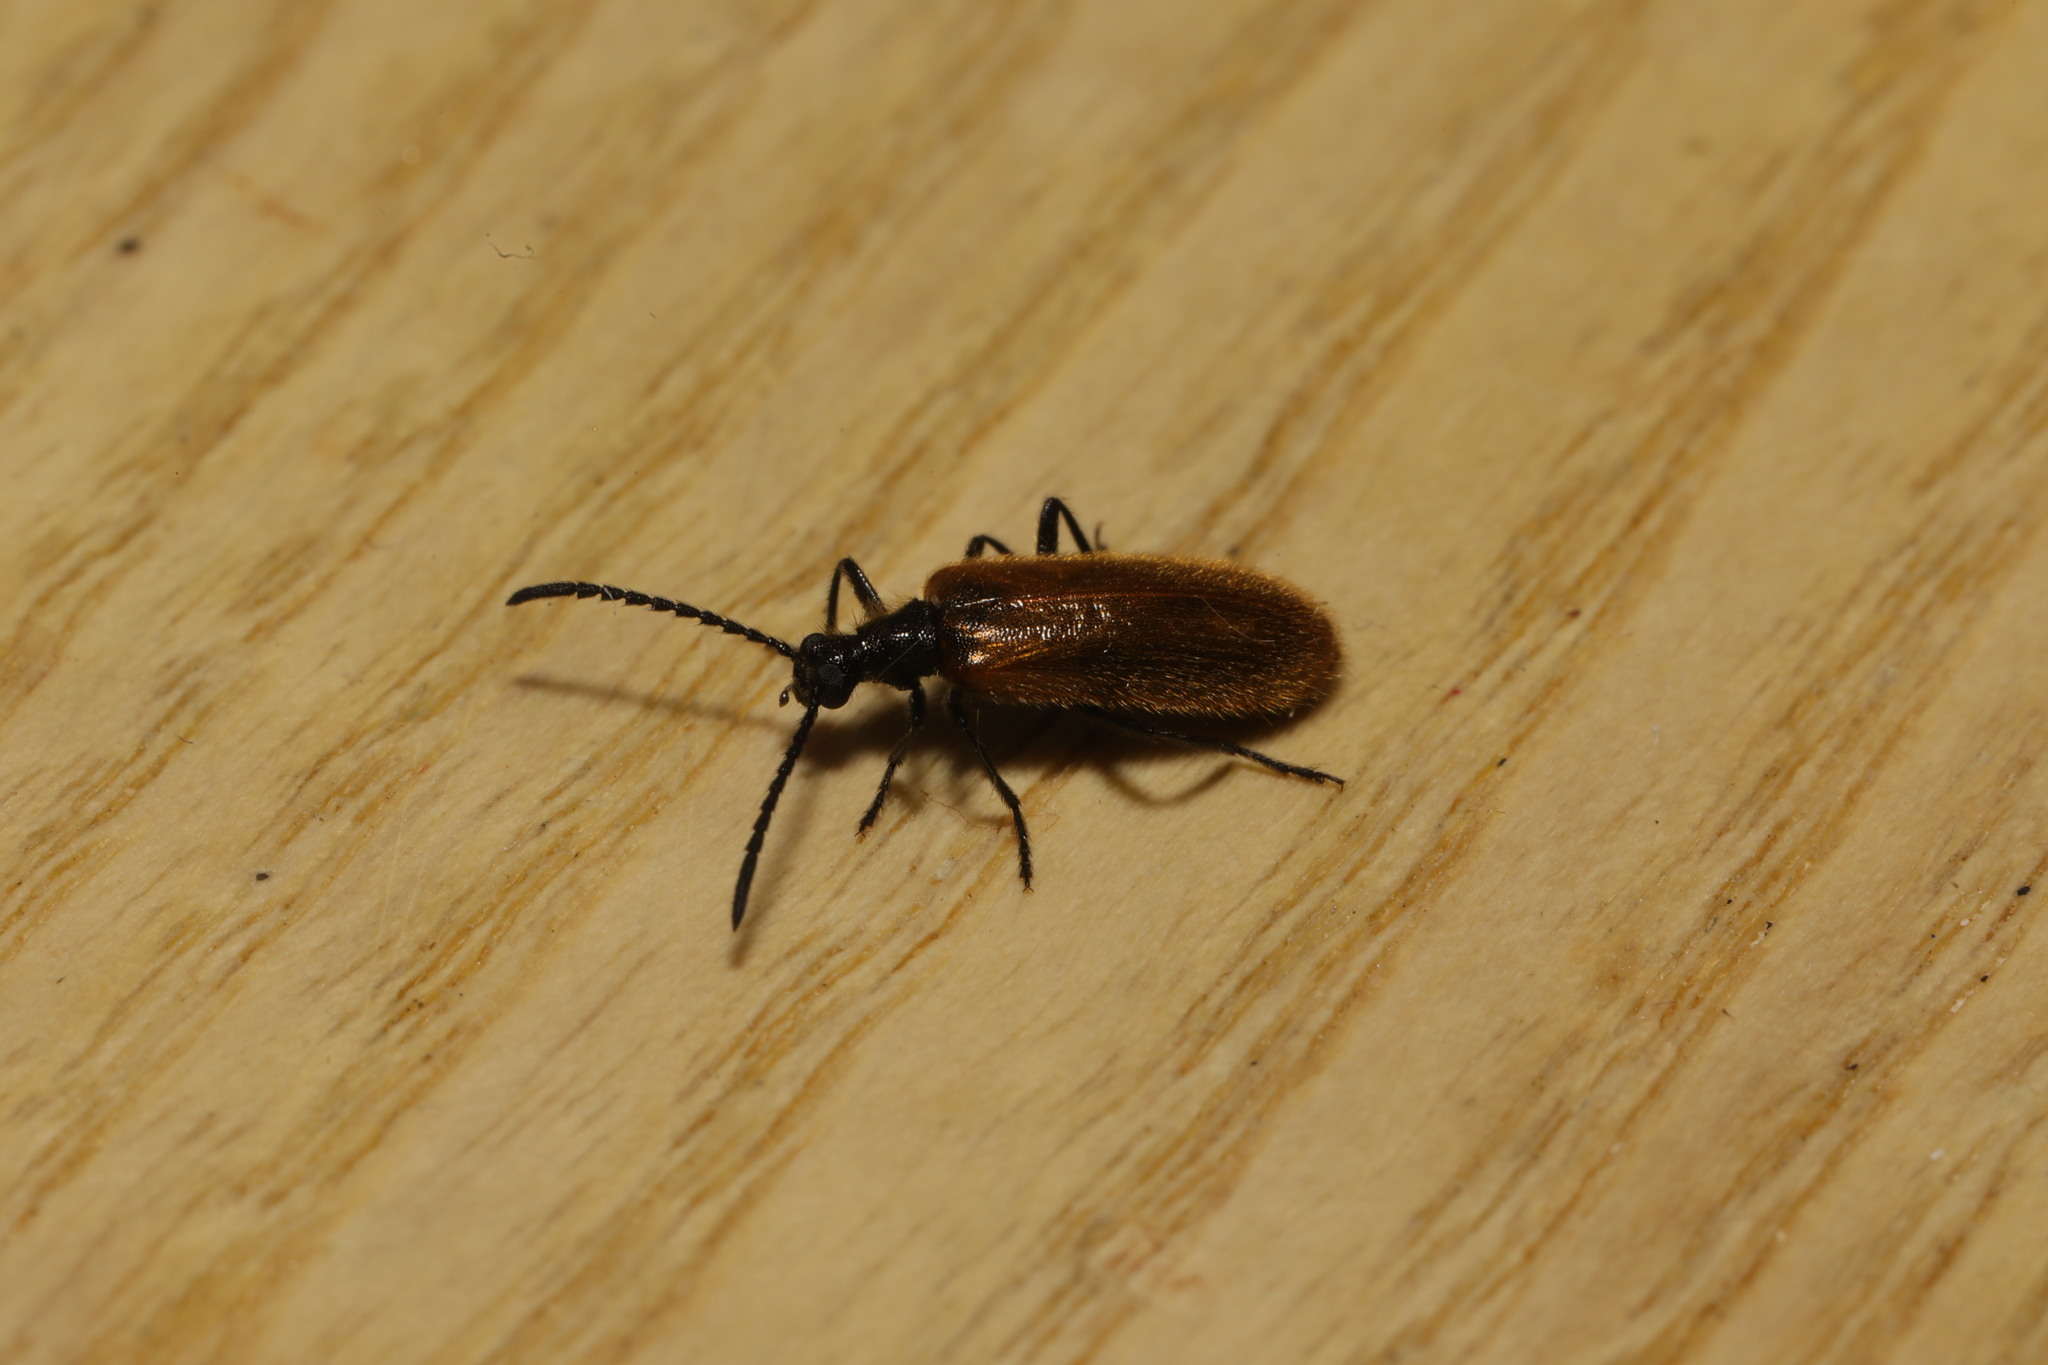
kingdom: Animalia
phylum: Arthropoda
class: Insecta
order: Coleoptera
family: Tenebrionidae
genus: Lagria
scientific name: Lagria hirta
